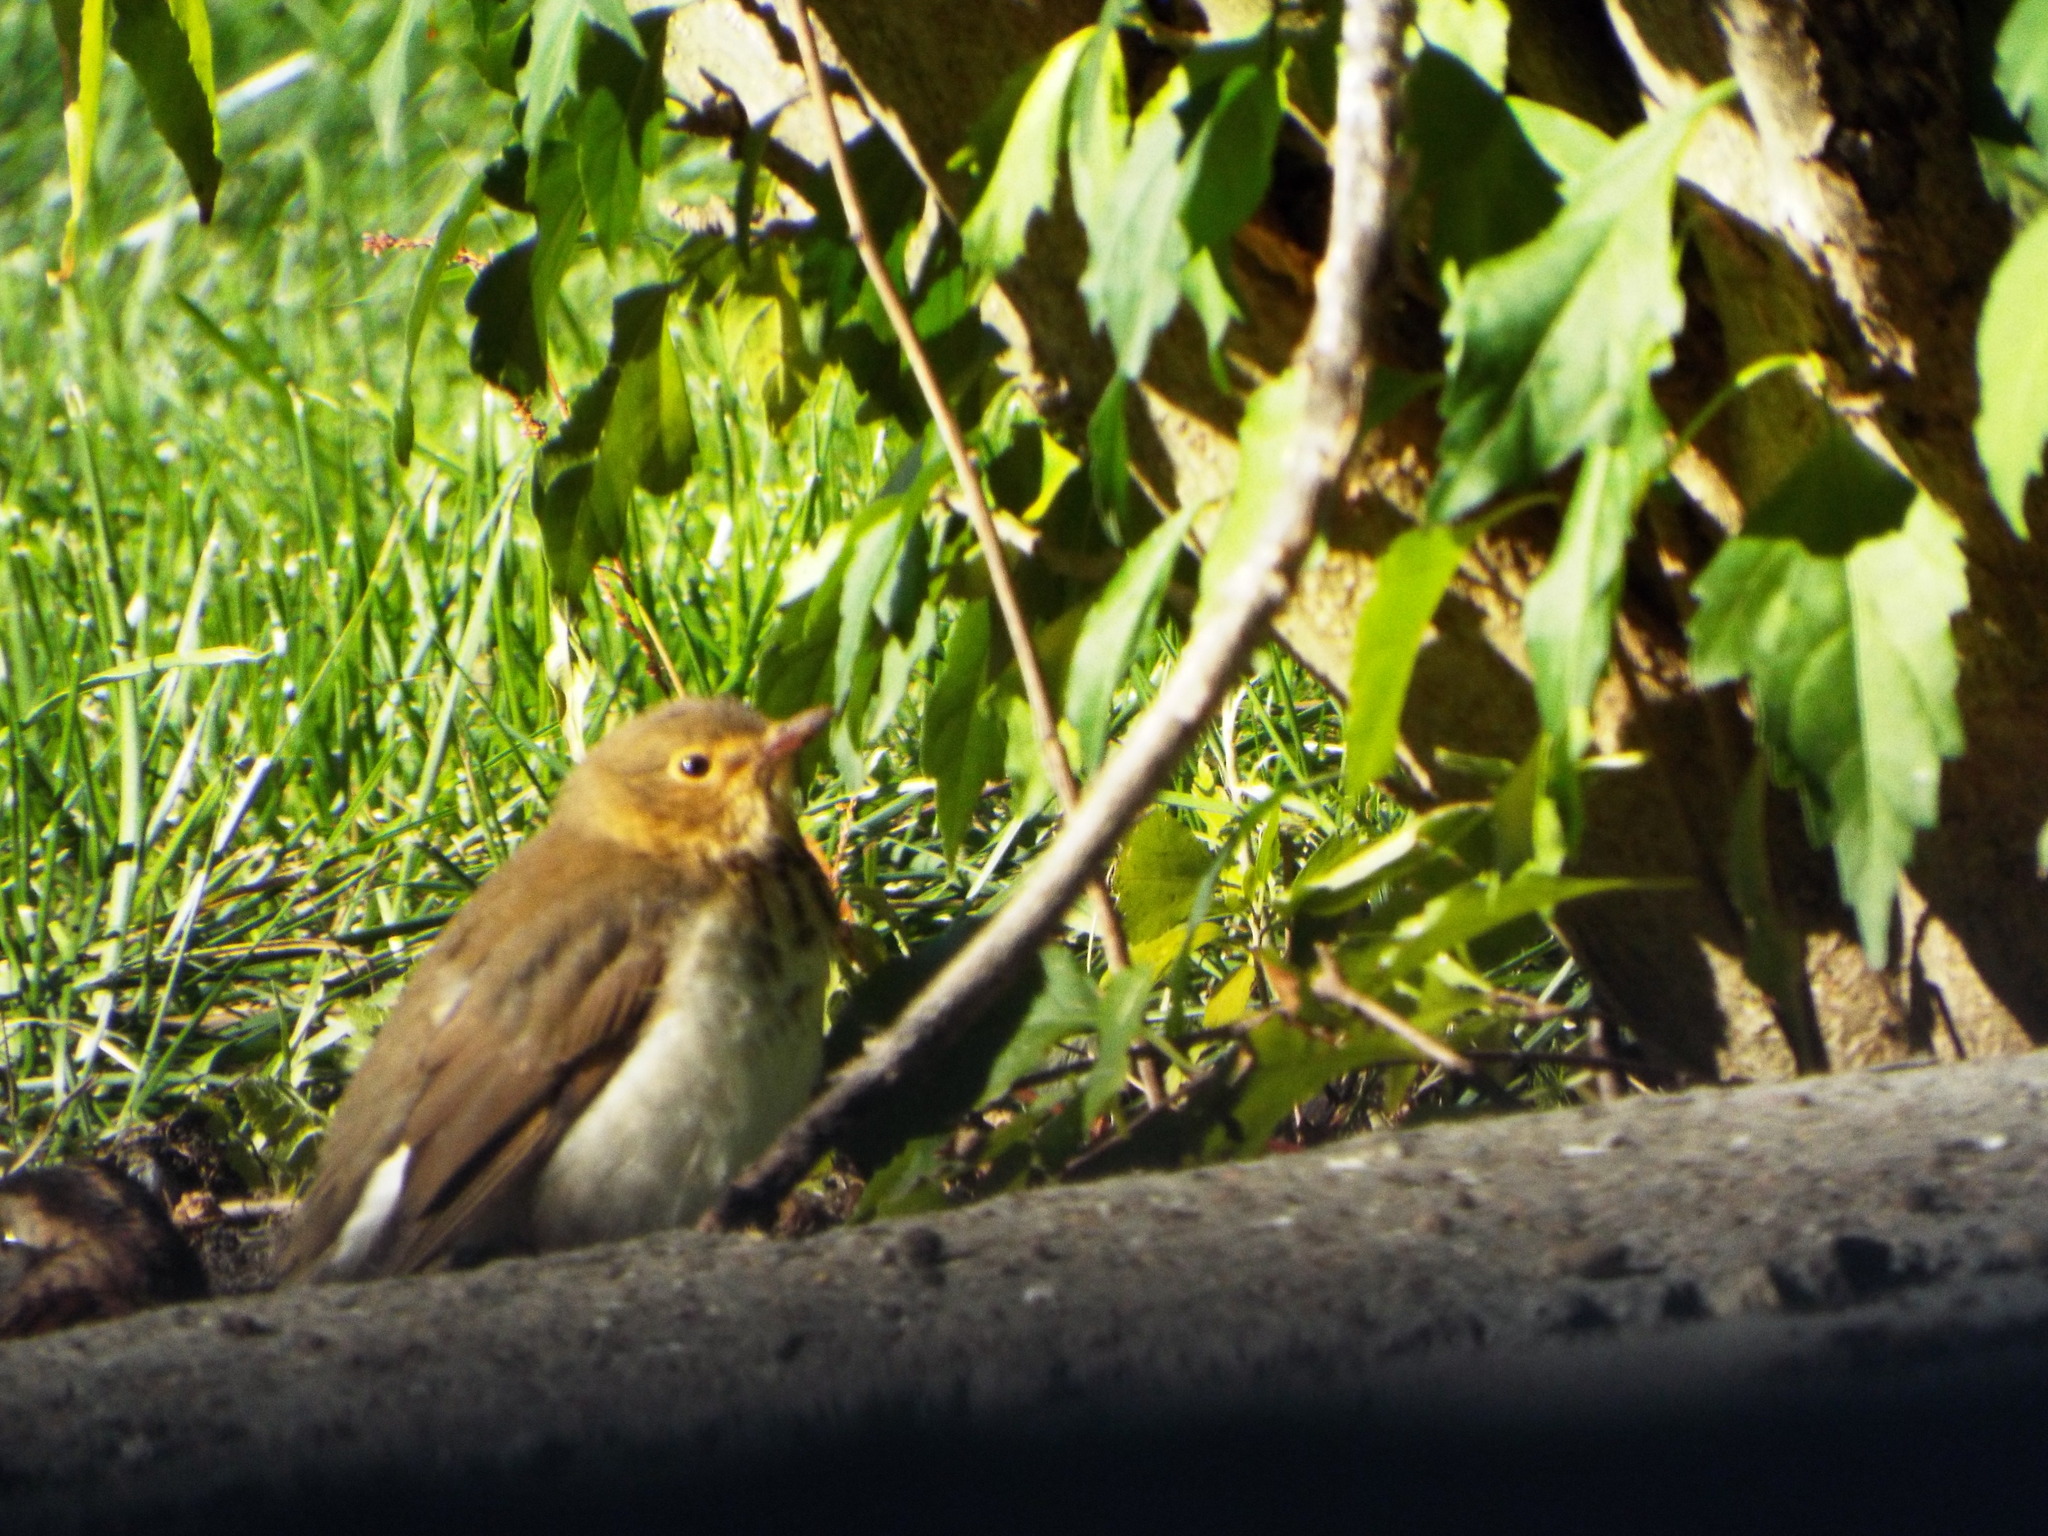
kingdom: Animalia
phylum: Chordata
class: Aves
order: Passeriformes
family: Turdidae
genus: Catharus
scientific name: Catharus ustulatus
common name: Swainson's thrush
